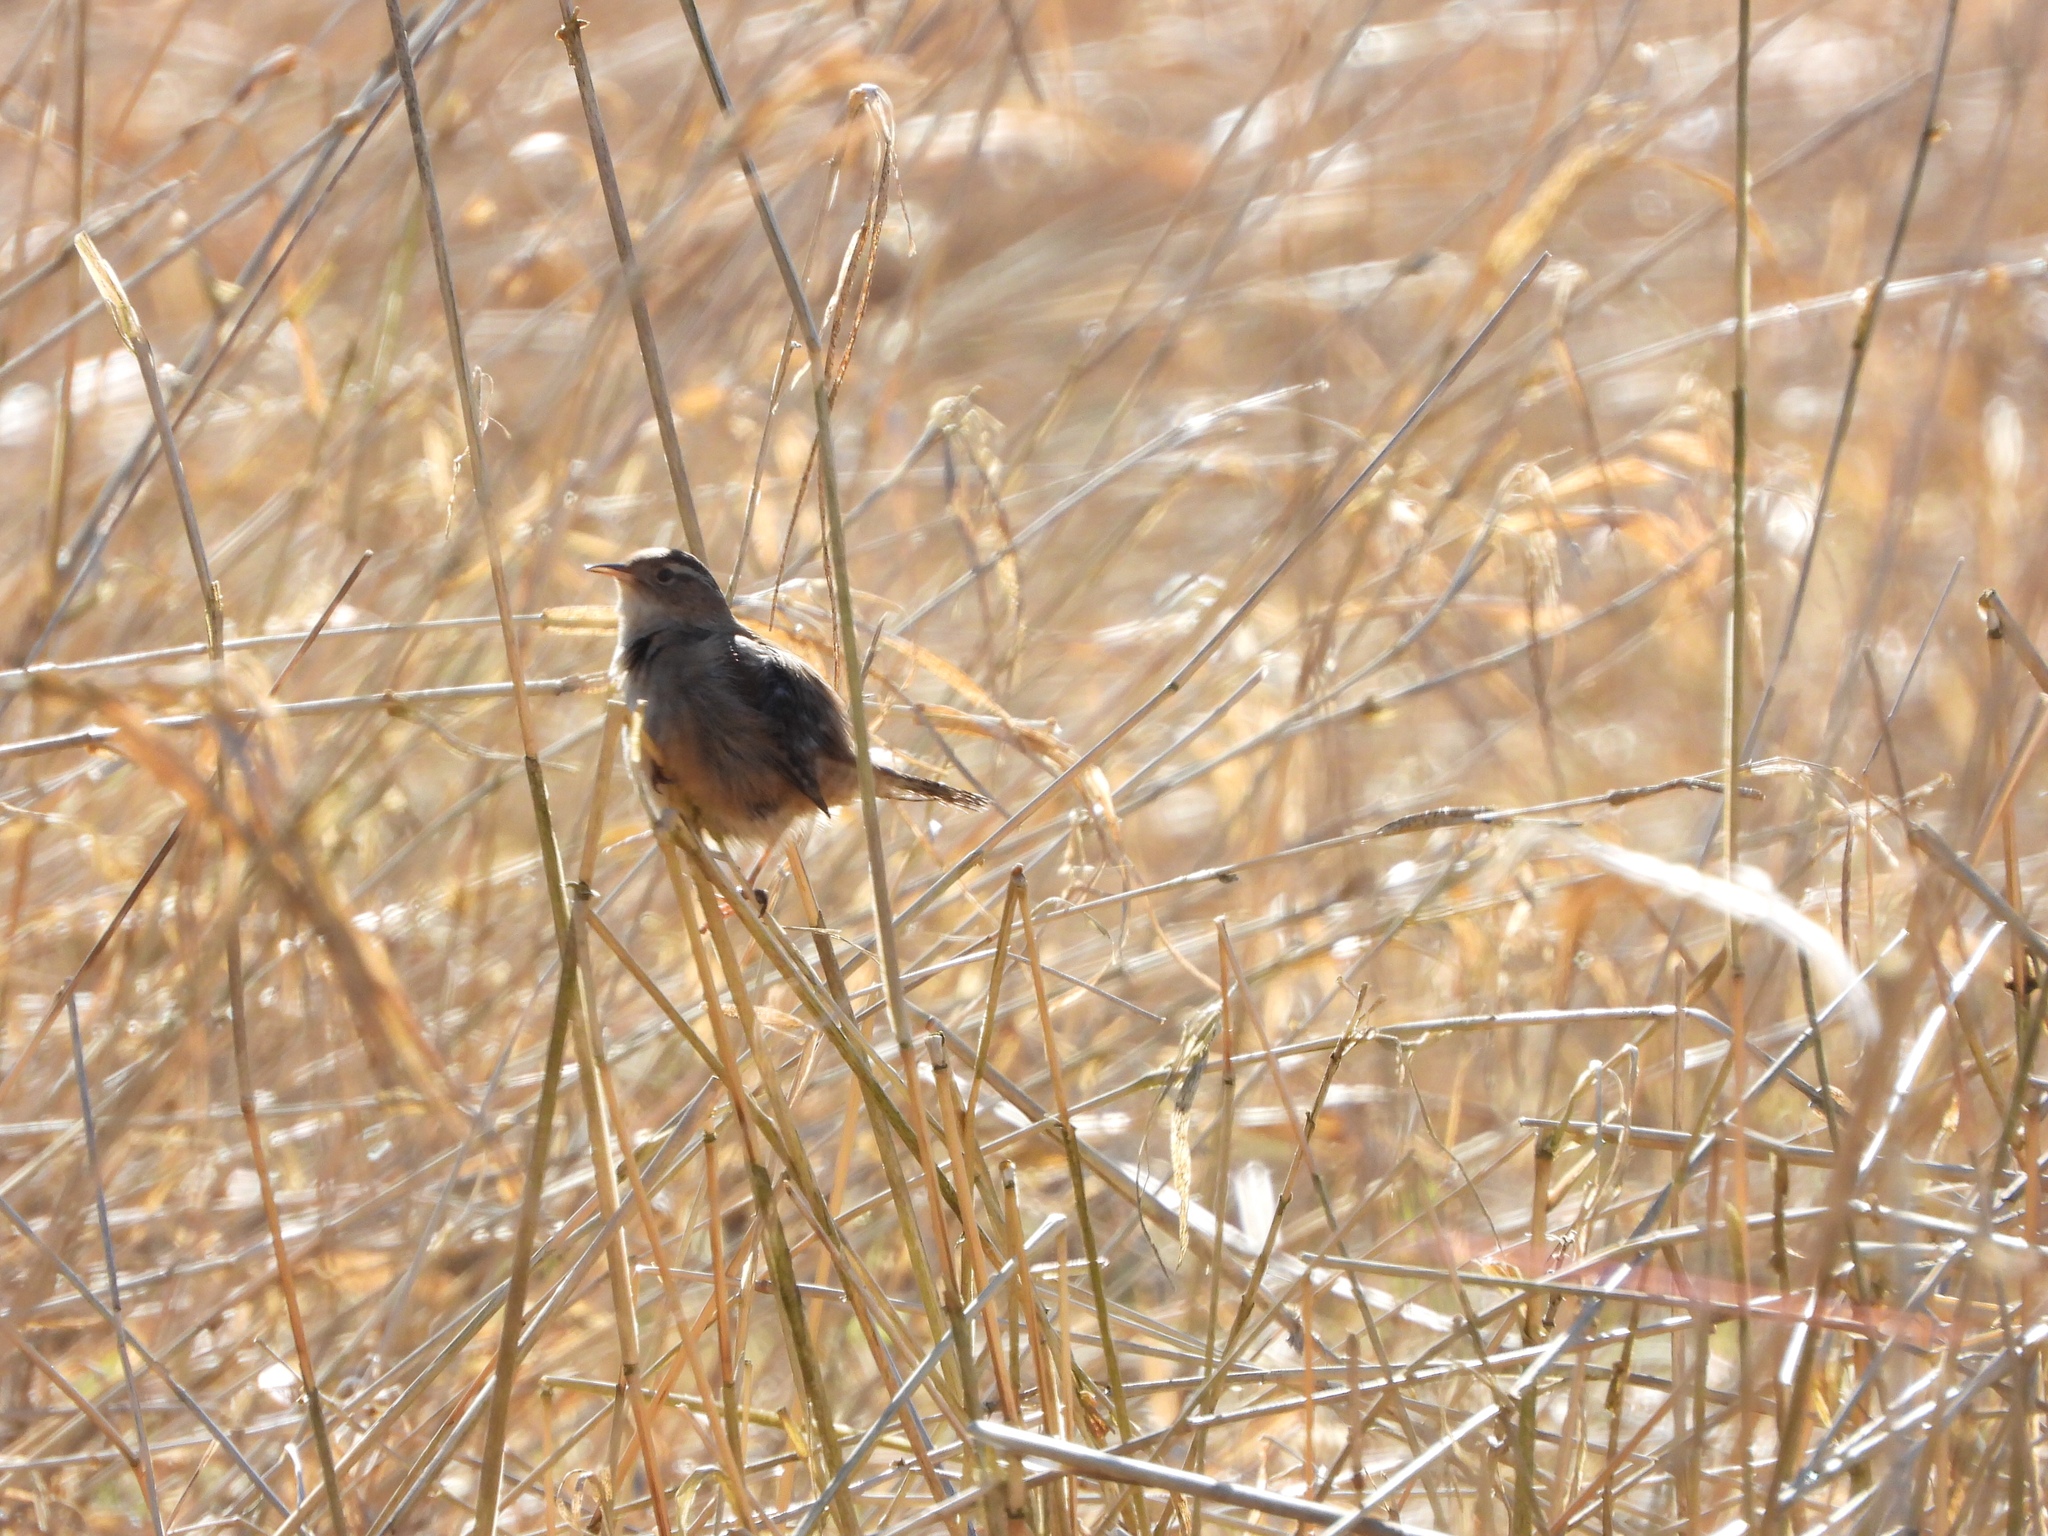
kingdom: Animalia
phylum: Chordata
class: Aves
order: Passeriformes
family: Troglodytidae
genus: Cistothorus
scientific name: Cistothorus palustris
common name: Marsh wren
